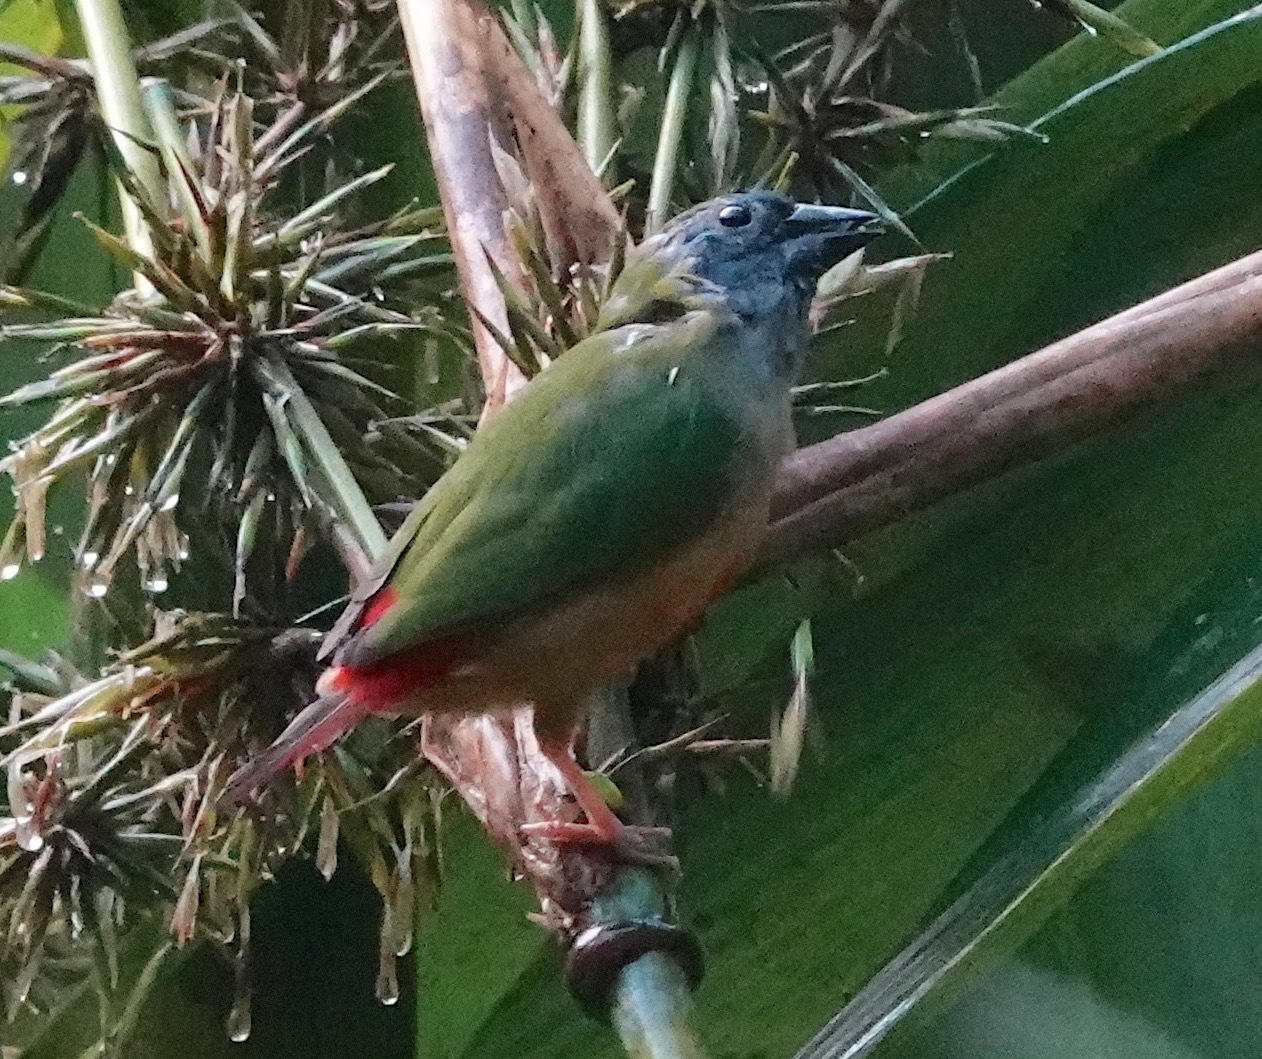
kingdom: Animalia
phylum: Chordata
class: Aves
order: Passeriformes
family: Estrildidae
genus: Erythrura
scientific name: Erythrura prasina
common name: Pin-tailed parrotfinch
